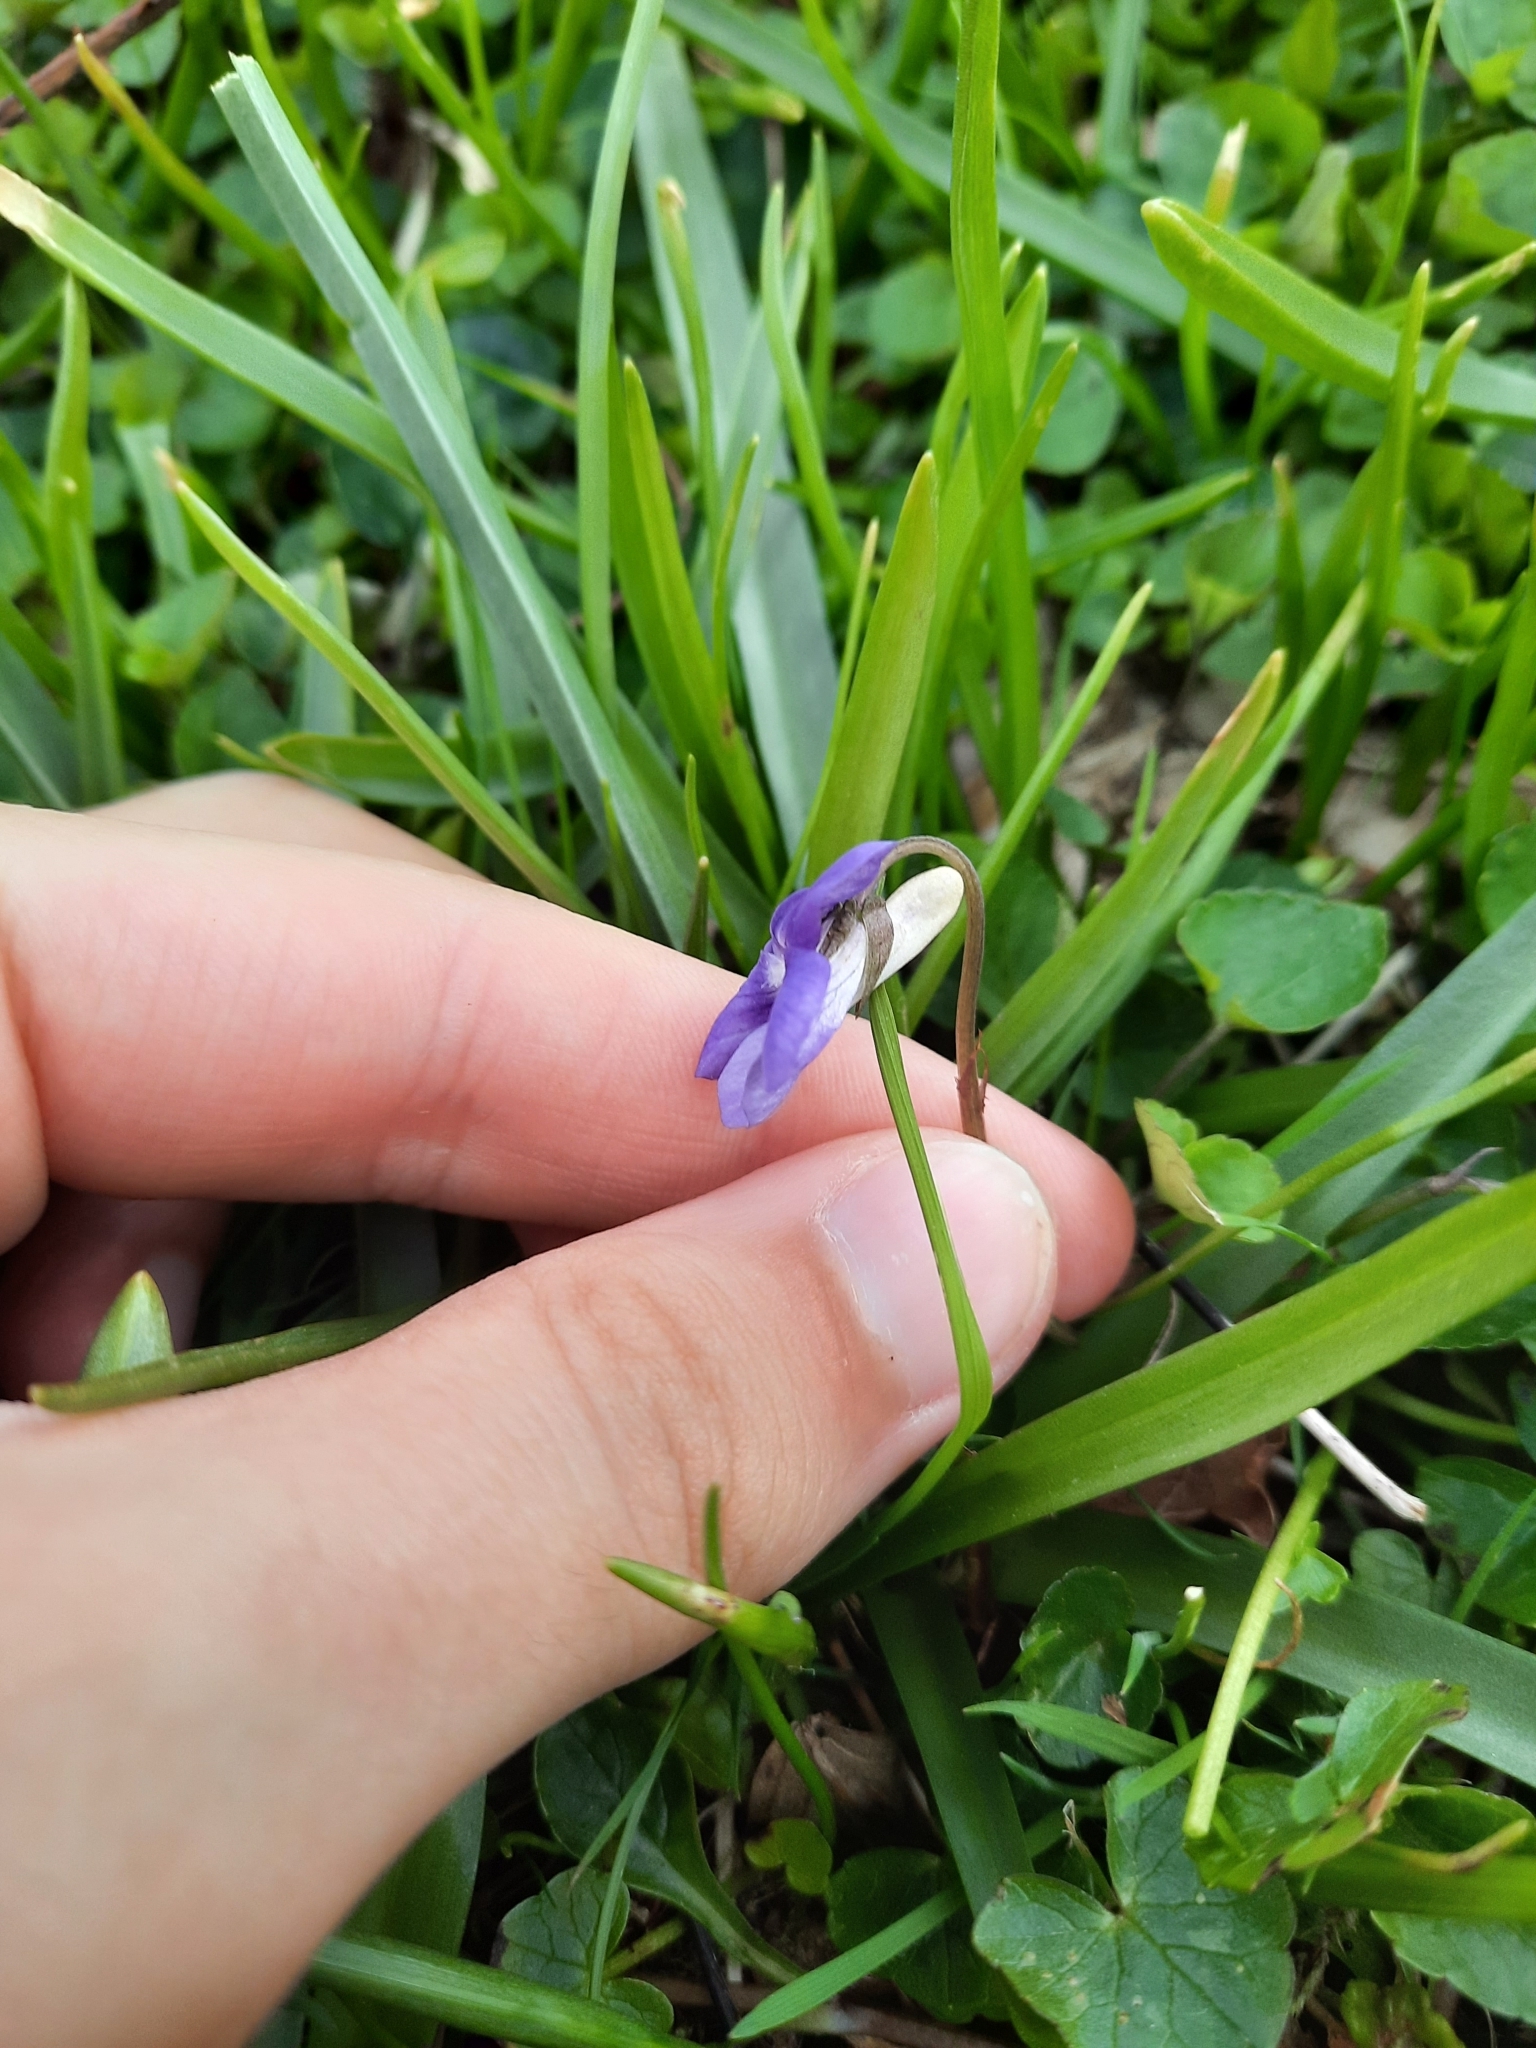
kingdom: Plantae
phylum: Tracheophyta
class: Magnoliopsida
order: Malpighiales
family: Violaceae
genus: Viola
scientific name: Viola riviniana
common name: Common dog-violet
